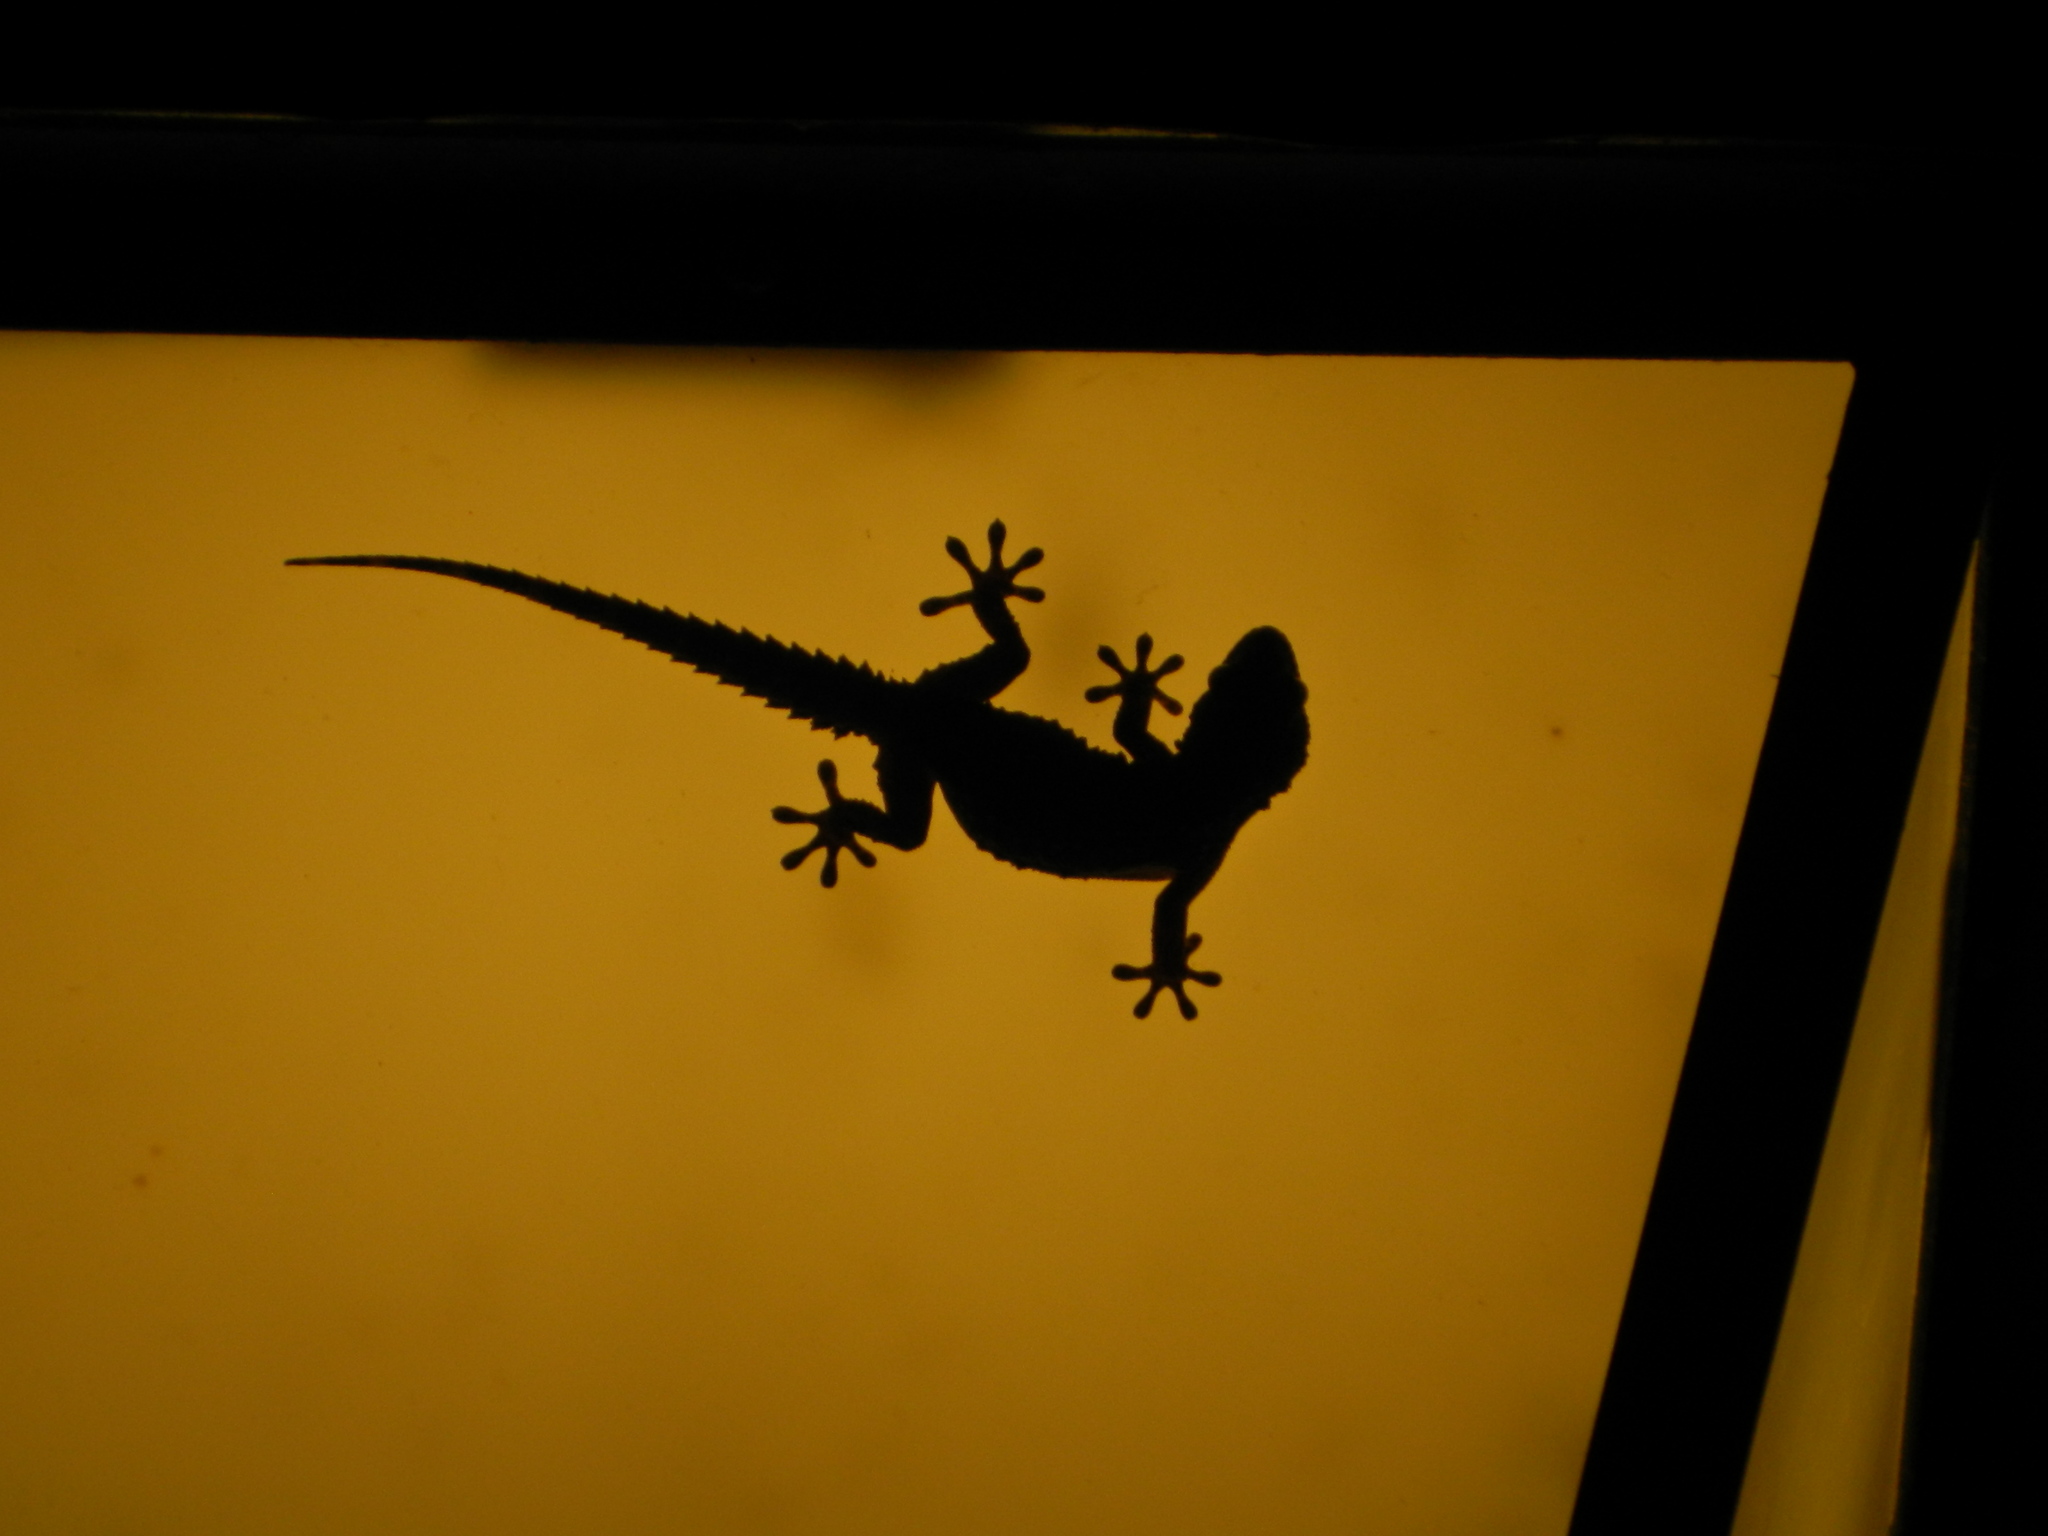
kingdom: Animalia
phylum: Chordata
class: Squamata
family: Phyllodactylidae
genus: Tarentola
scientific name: Tarentola mauritanica
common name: Moorish gecko
